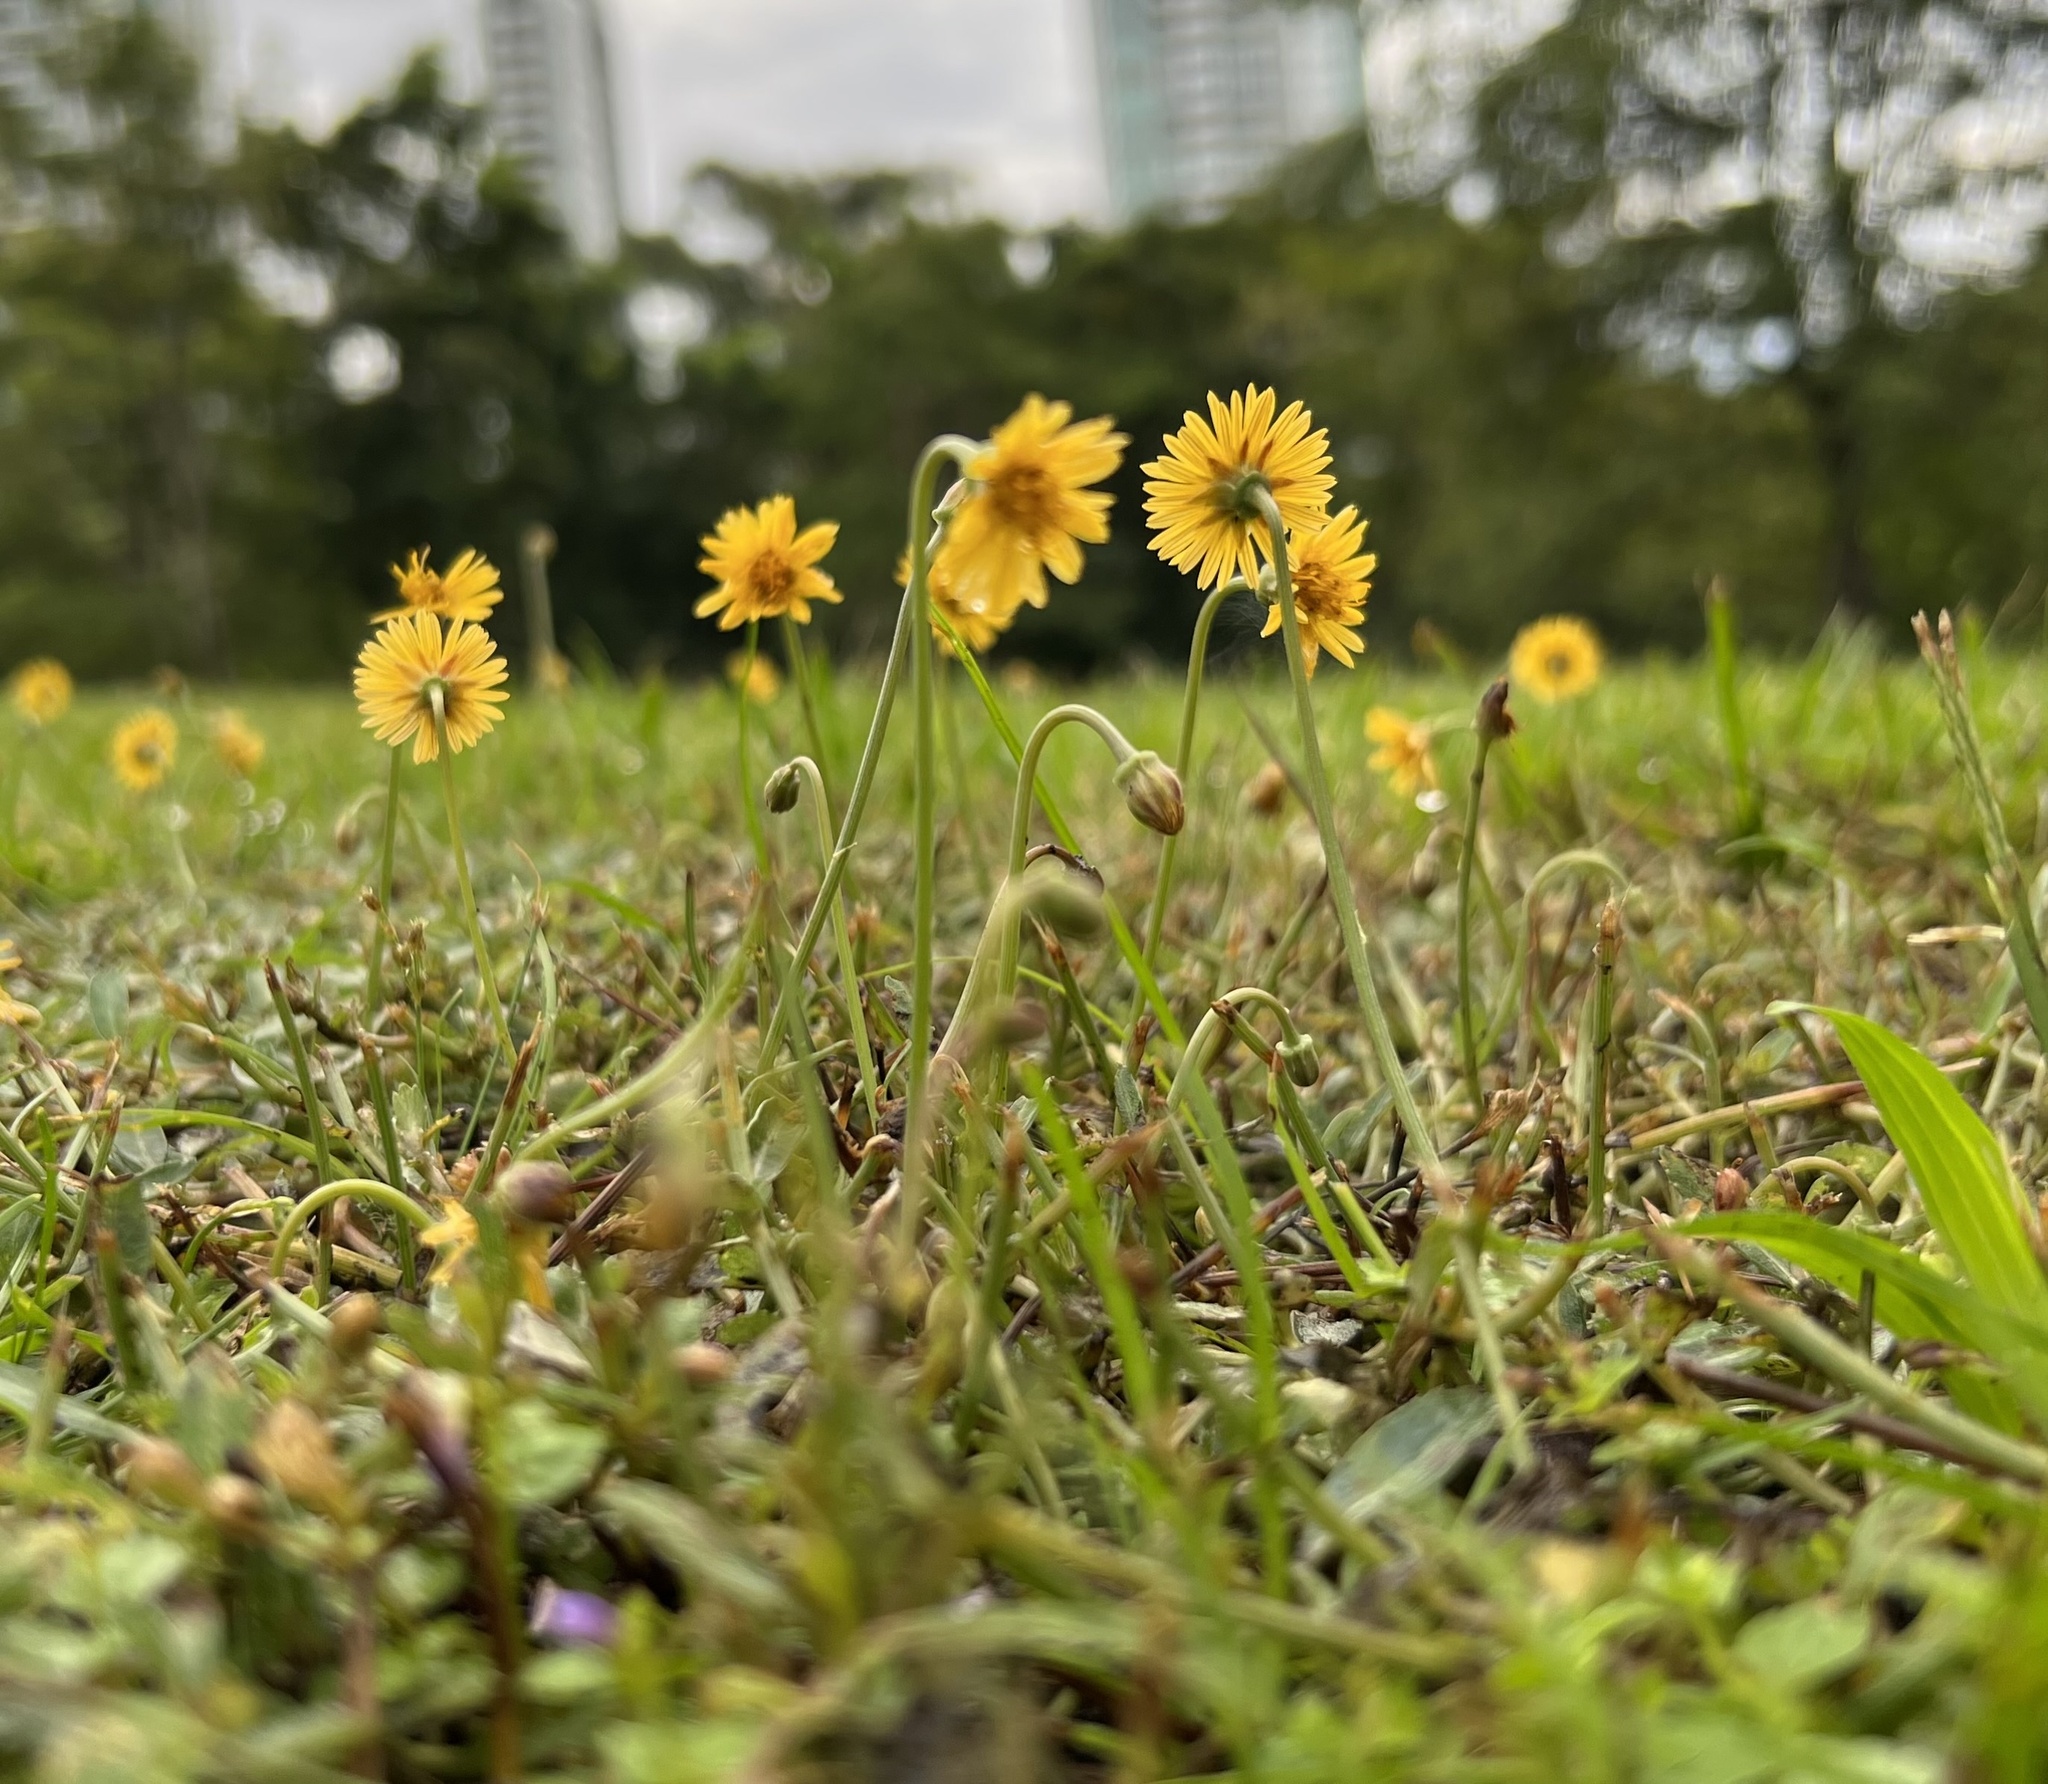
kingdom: Plantae
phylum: Tracheophyta
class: Magnoliopsida
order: Asterales
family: Asteraceae
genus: Ixeris
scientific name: Ixeris chinensis
